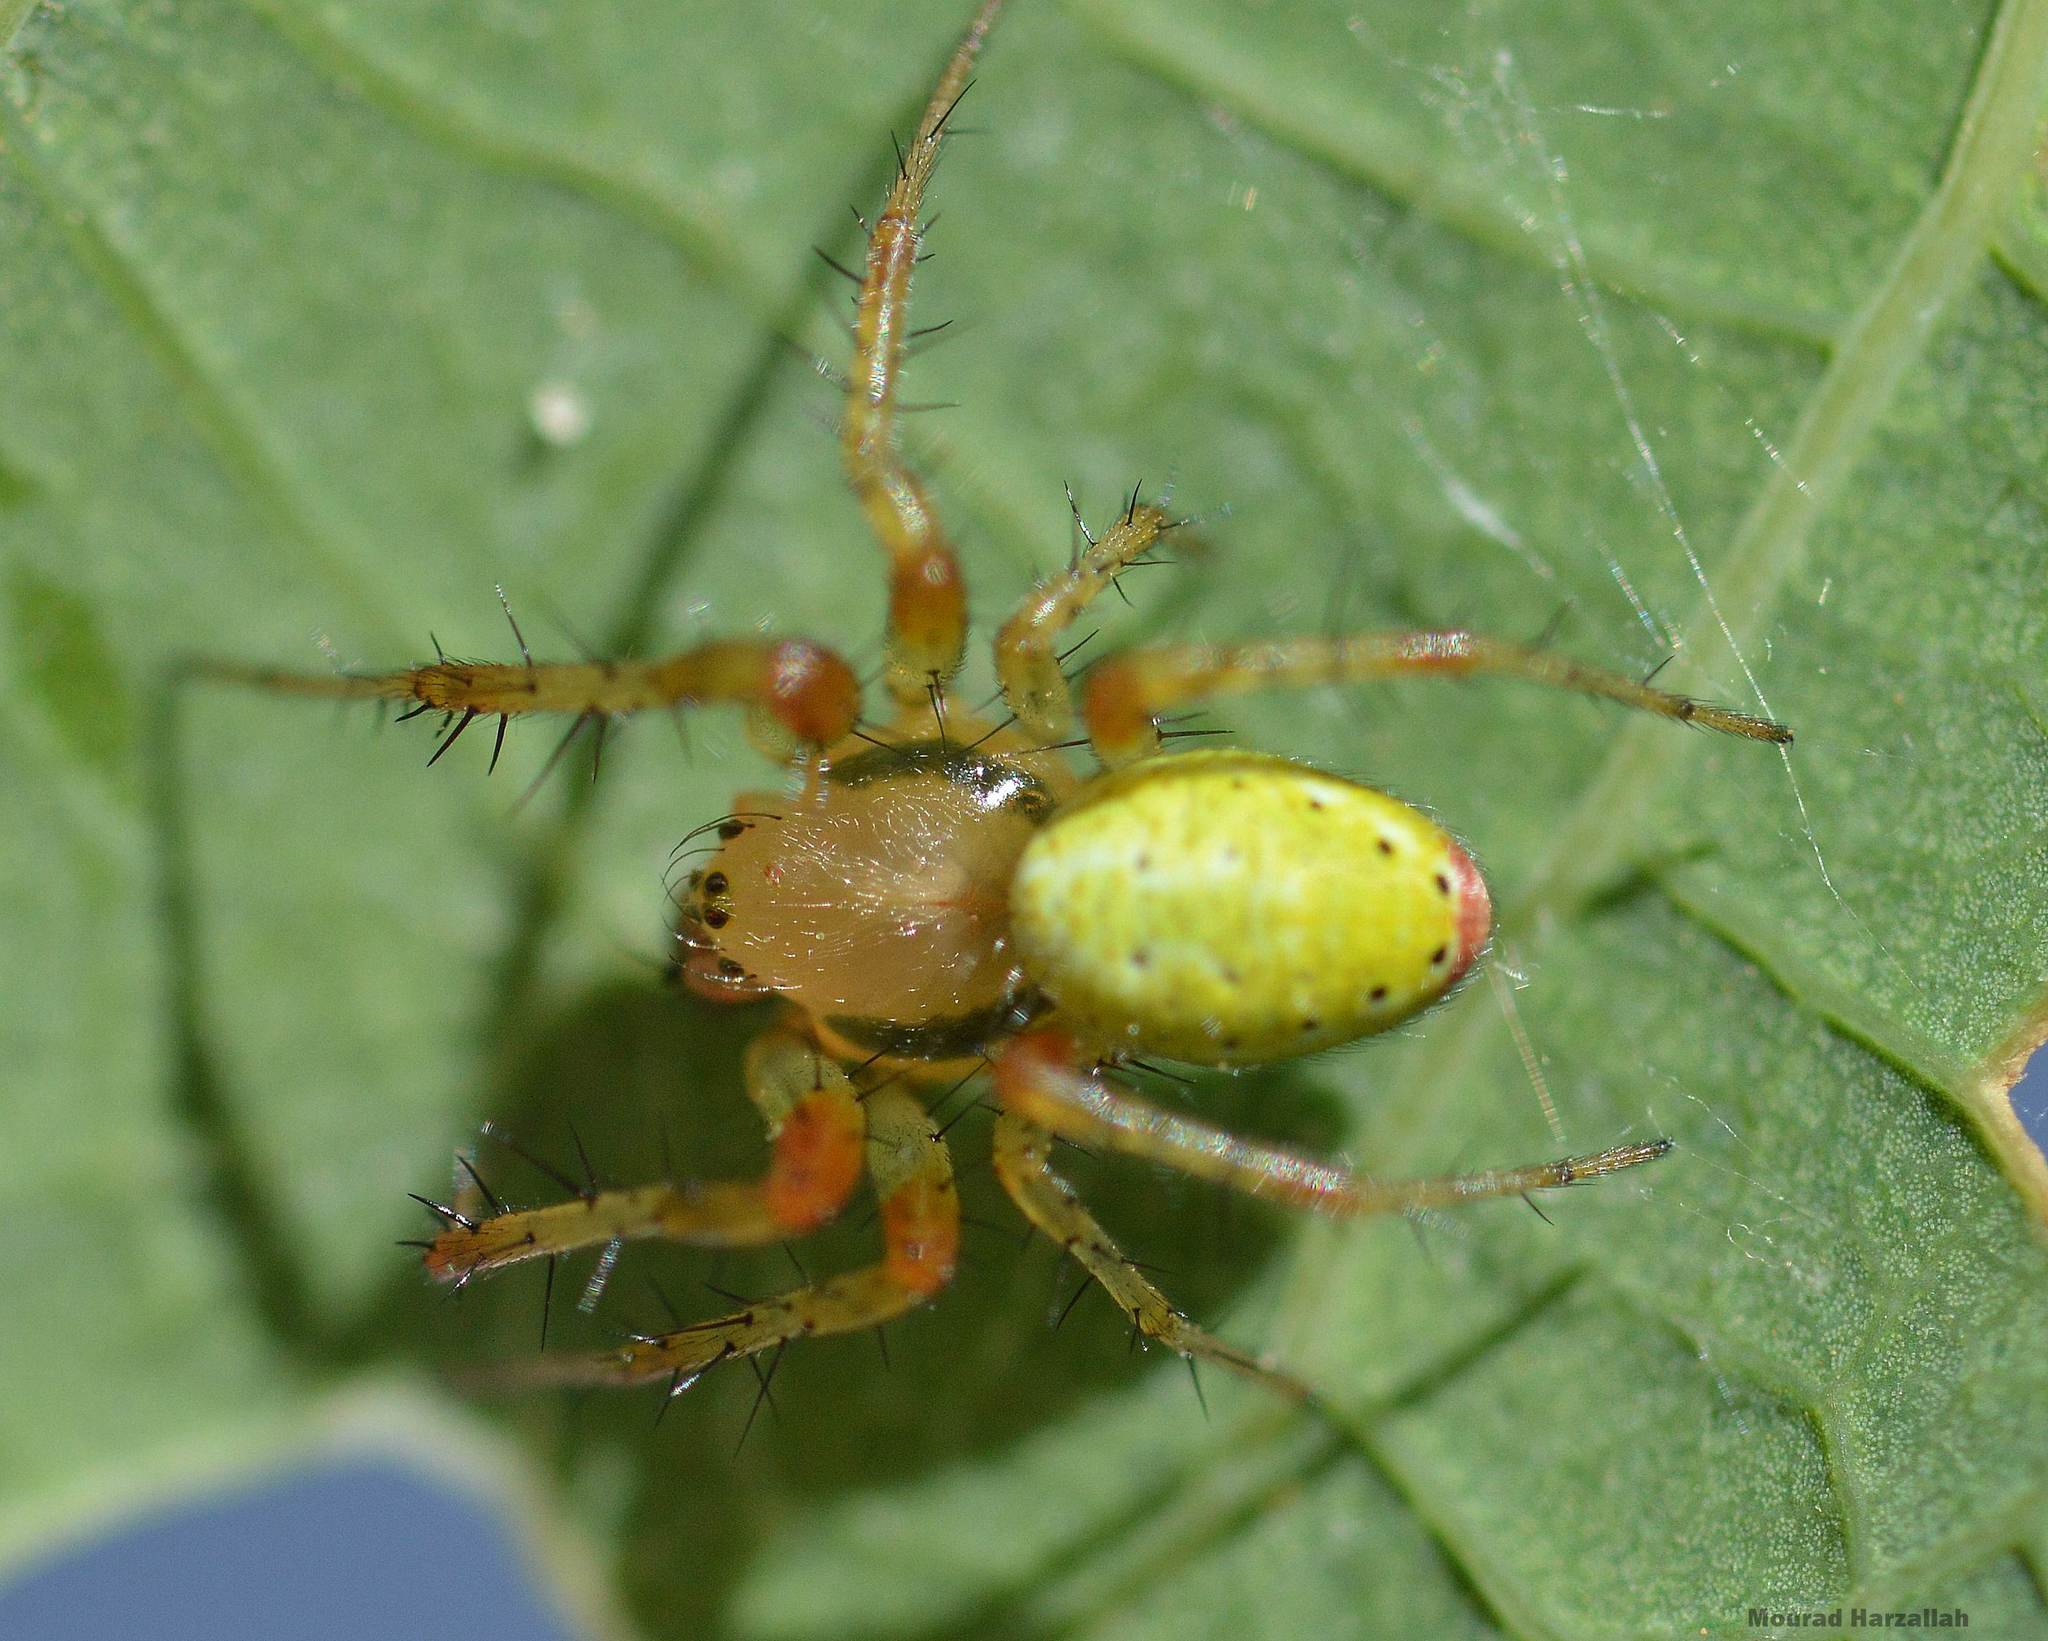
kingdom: Animalia
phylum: Arthropoda
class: Arachnida
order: Araneae
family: Araneidae
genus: Araniella
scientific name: Araniella cucurbitina
